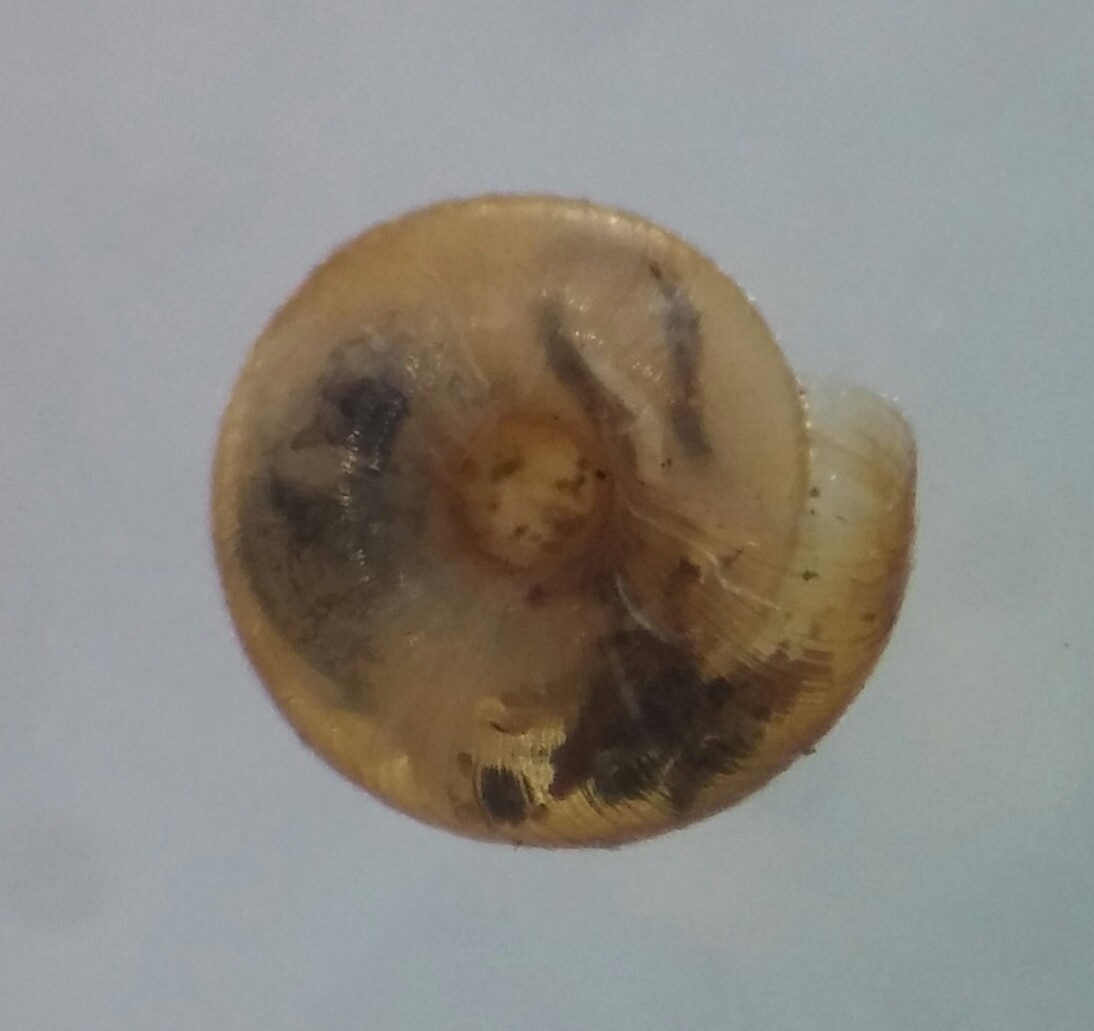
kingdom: Animalia
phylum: Mollusca
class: Gastropoda
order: Stylommatophora
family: Punctidae
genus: Punctum
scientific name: Punctum californicum
